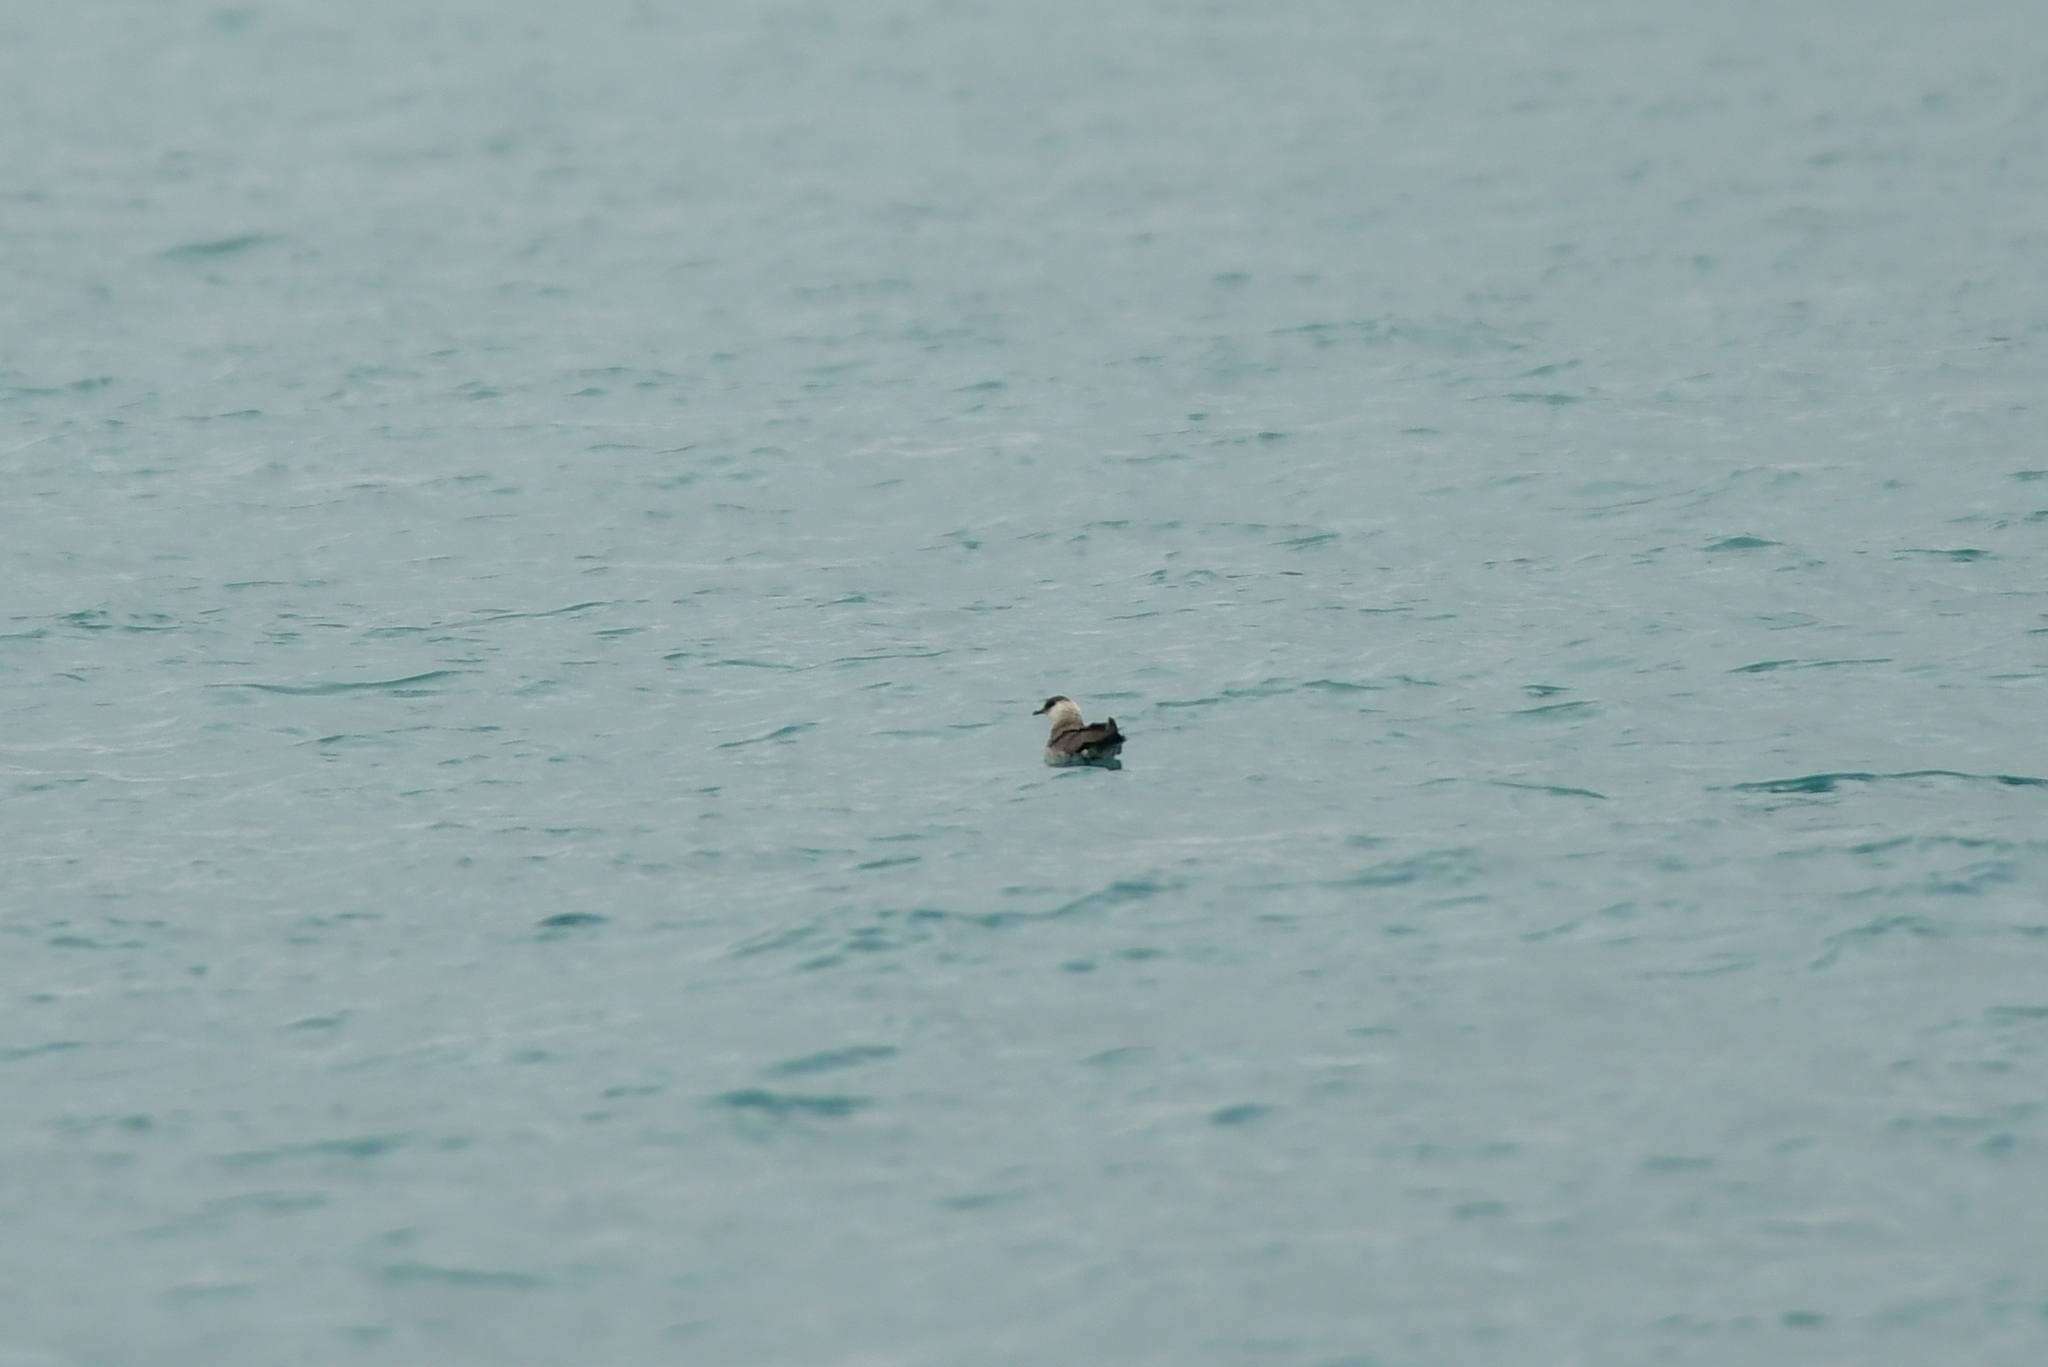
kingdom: Animalia
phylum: Chordata
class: Aves
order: Charadriiformes
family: Stercorariidae
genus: Stercorarius
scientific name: Stercorarius parasiticus
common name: Parasitic jaeger
